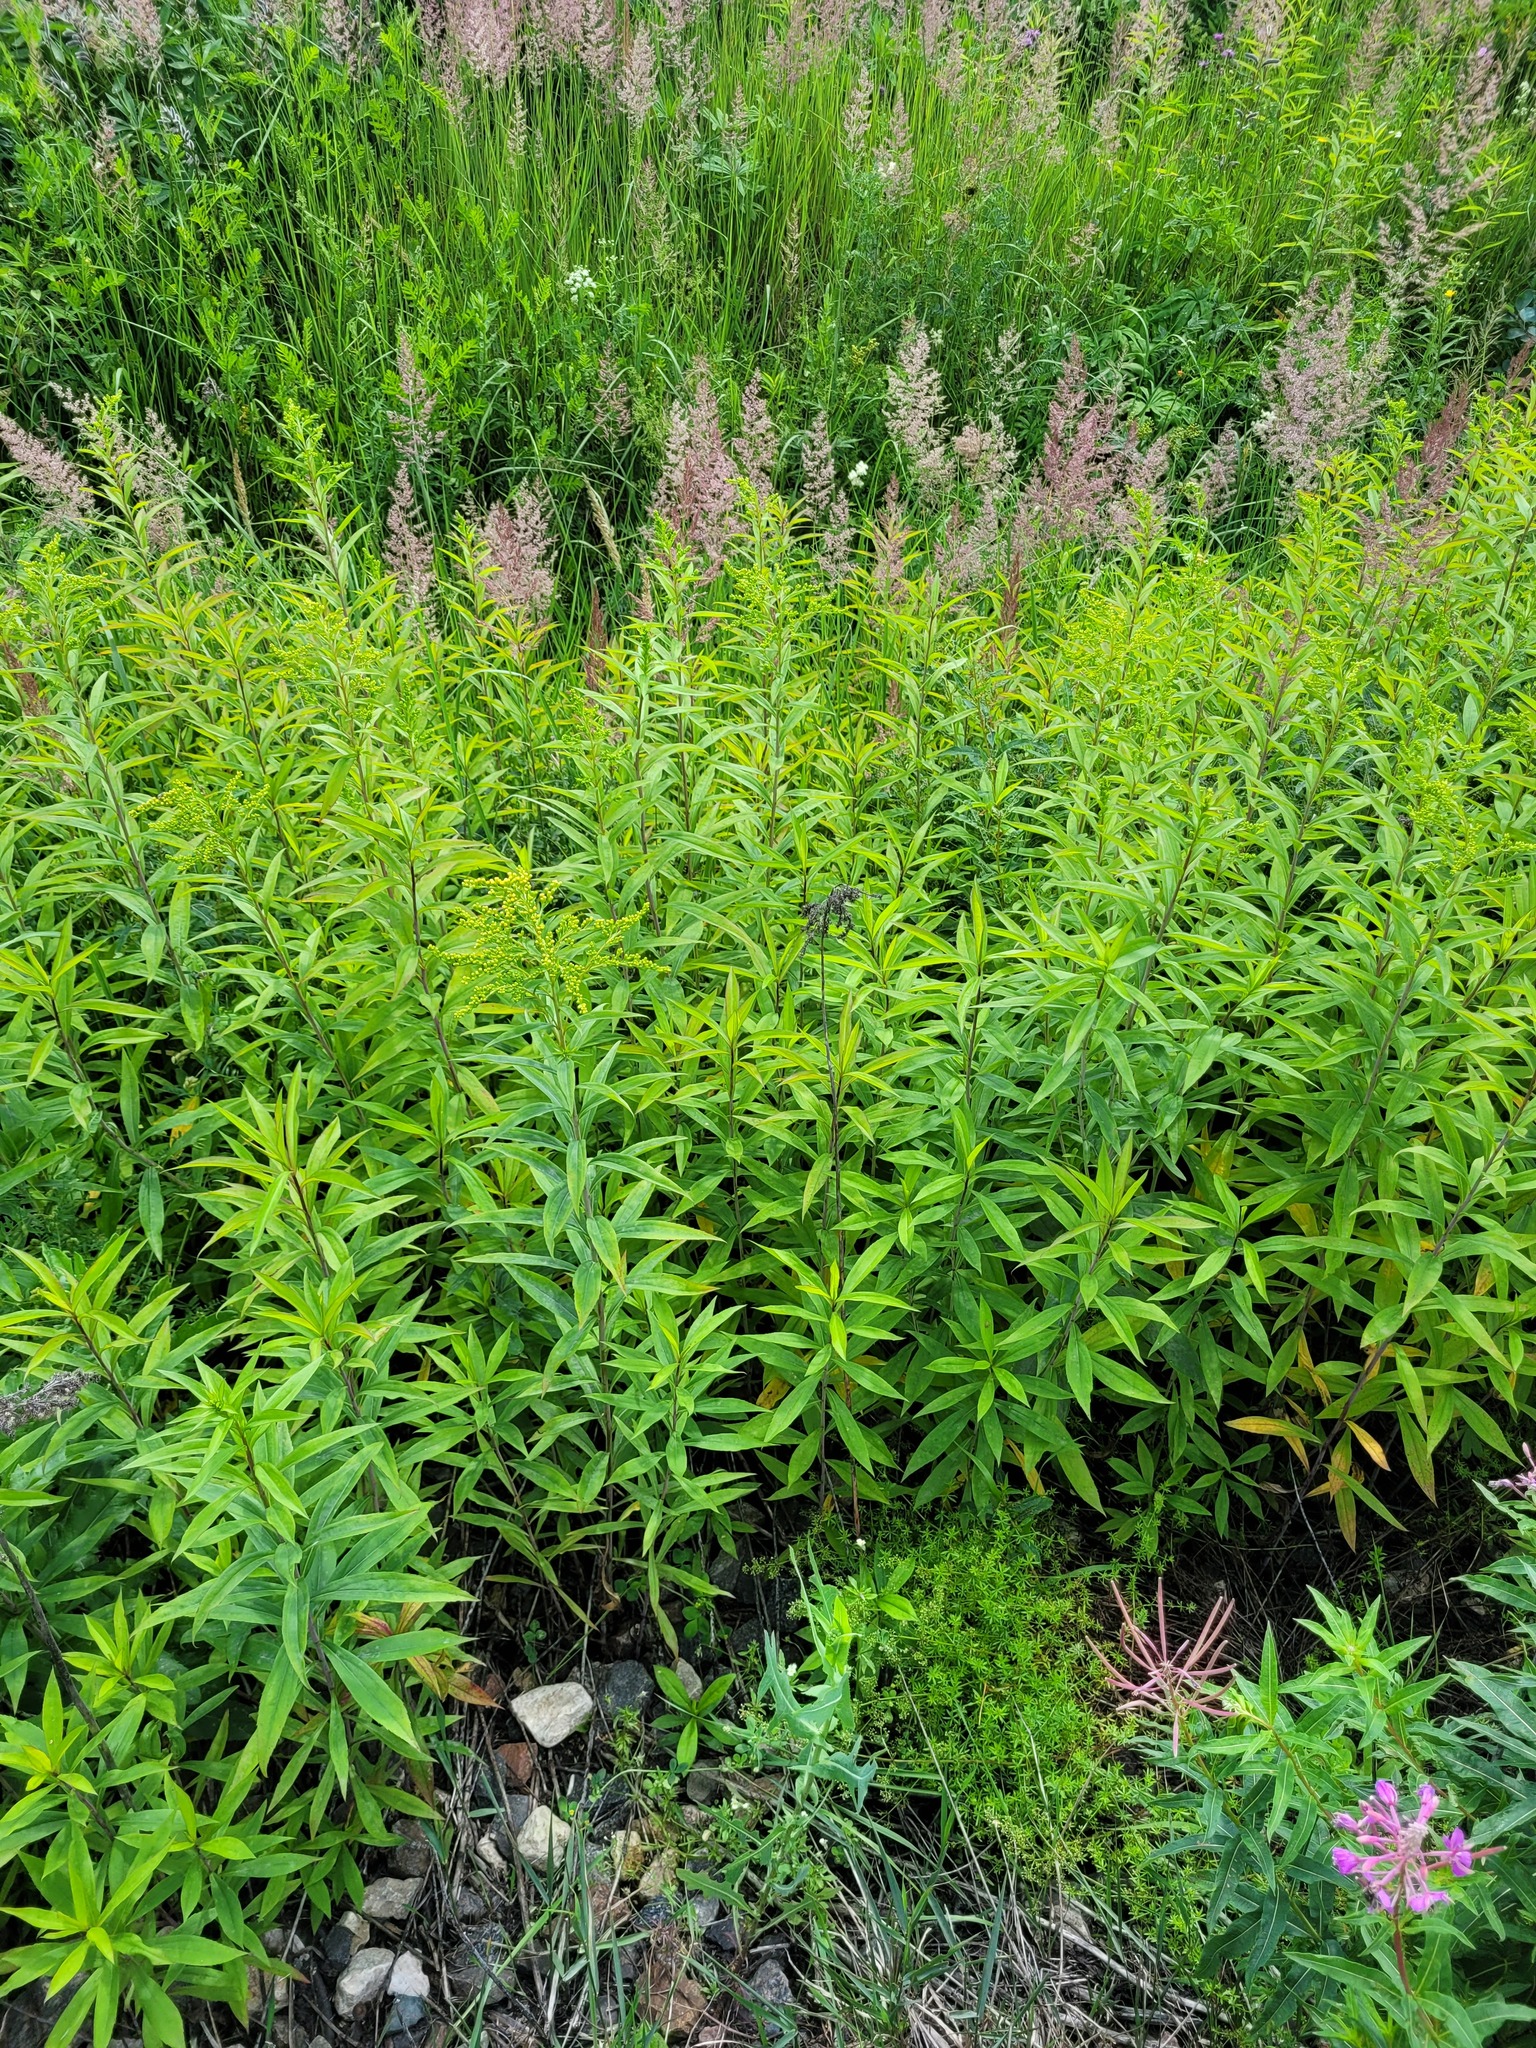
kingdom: Plantae
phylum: Tracheophyta
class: Magnoliopsida
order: Asterales
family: Asteraceae
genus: Solidago
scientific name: Solidago gigantea
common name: Giant goldenrod
